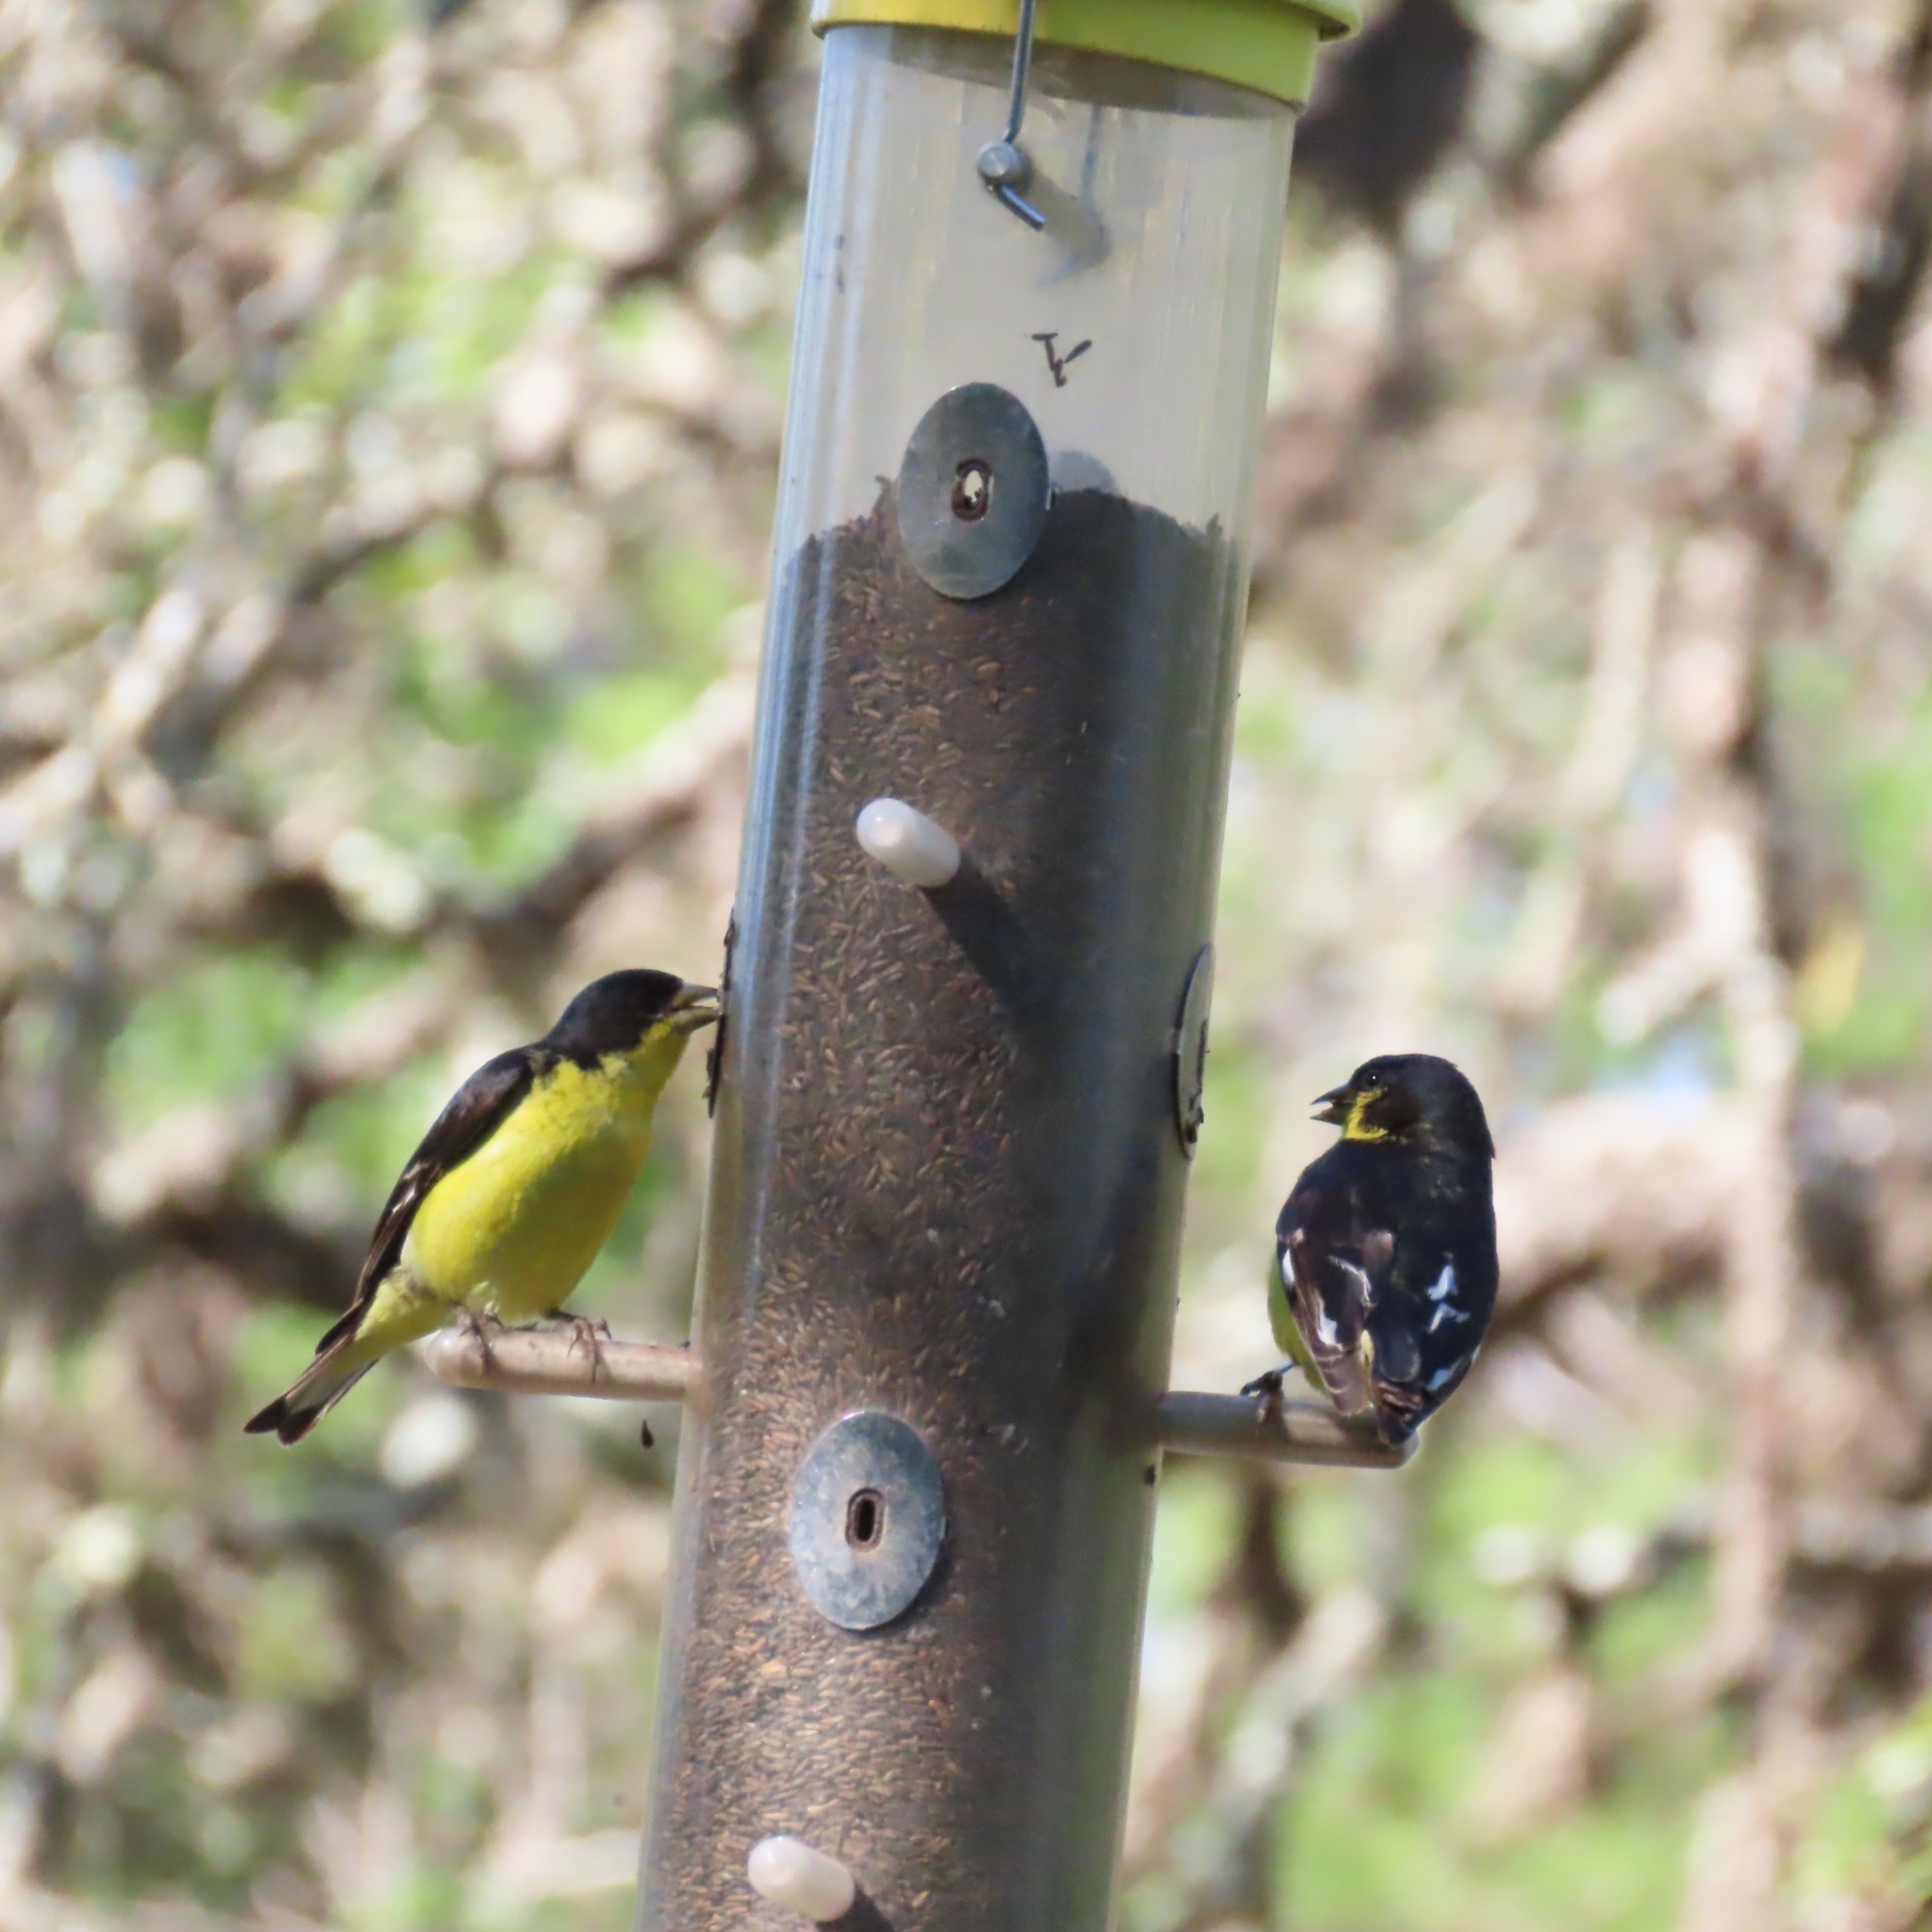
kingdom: Animalia
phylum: Chordata
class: Aves
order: Passeriformes
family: Fringillidae
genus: Spinus
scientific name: Spinus psaltria
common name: Lesser goldfinch
